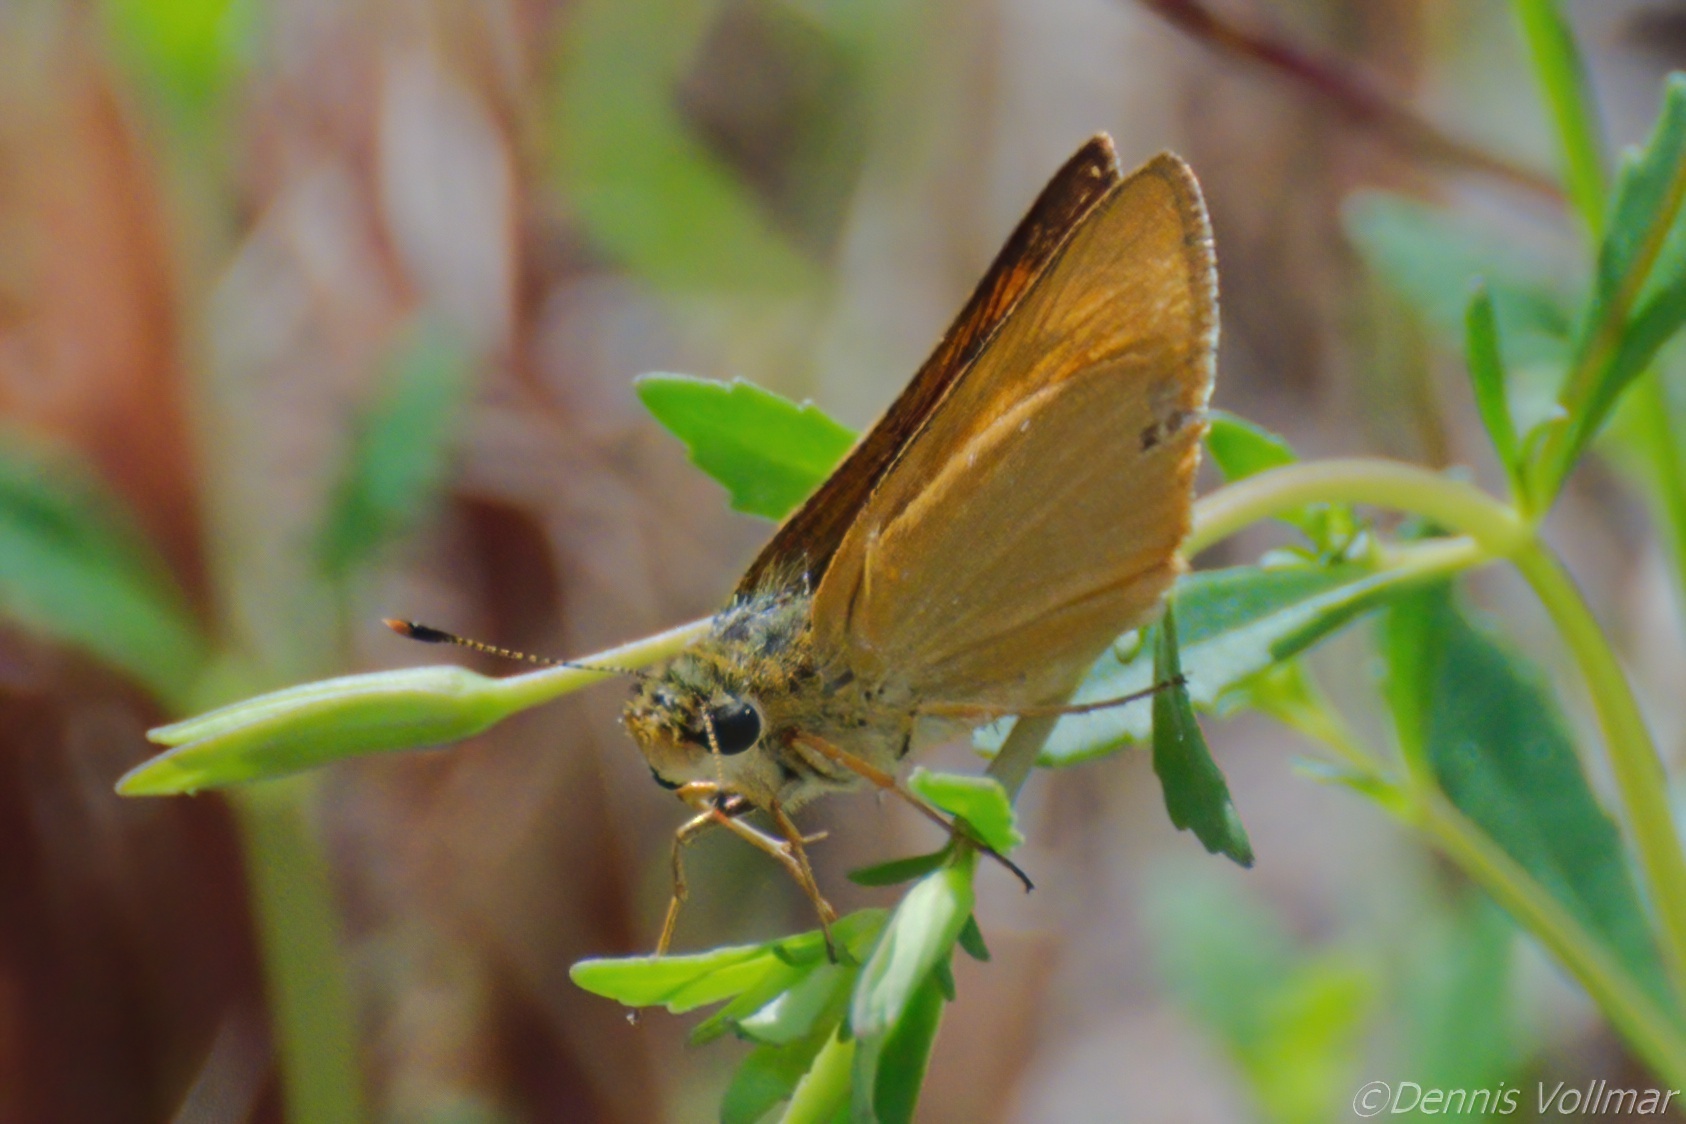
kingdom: Animalia
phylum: Arthropoda
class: Insecta
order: Lepidoptera
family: Hesperiidae
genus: Atrytone
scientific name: Atrytone delaware
